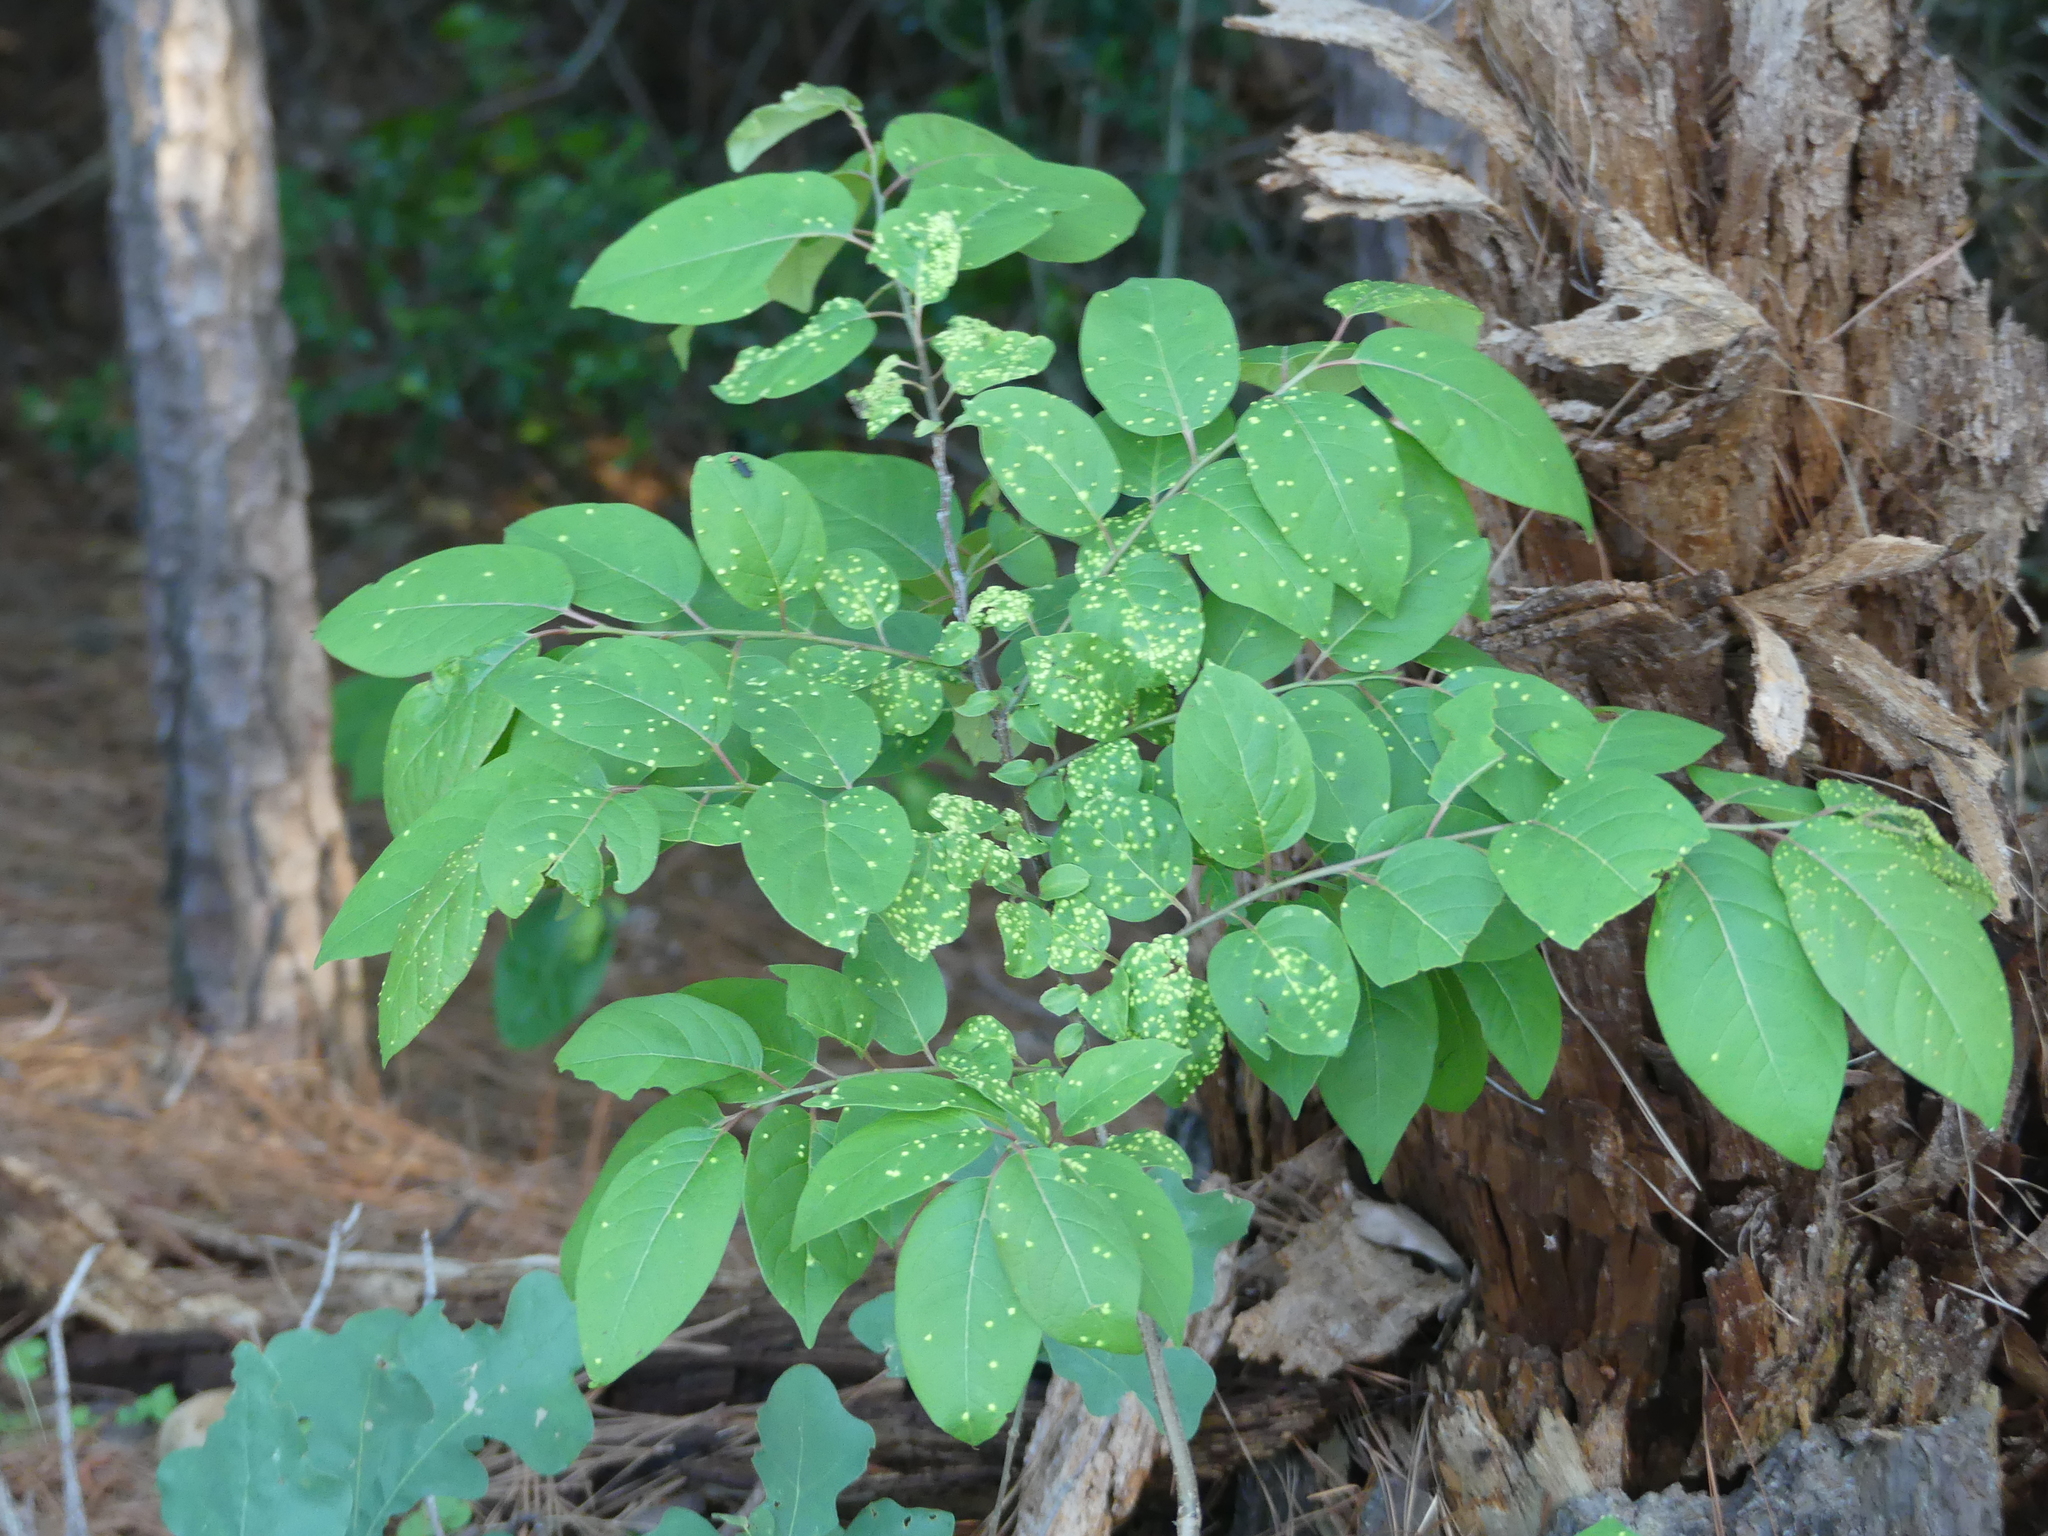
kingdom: Plantae
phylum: Tracheophyta
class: Magnoliopsida
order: Ericales
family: Ebenaceae
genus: Diospyros
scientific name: Diospyros virginiana
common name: Persimmon
